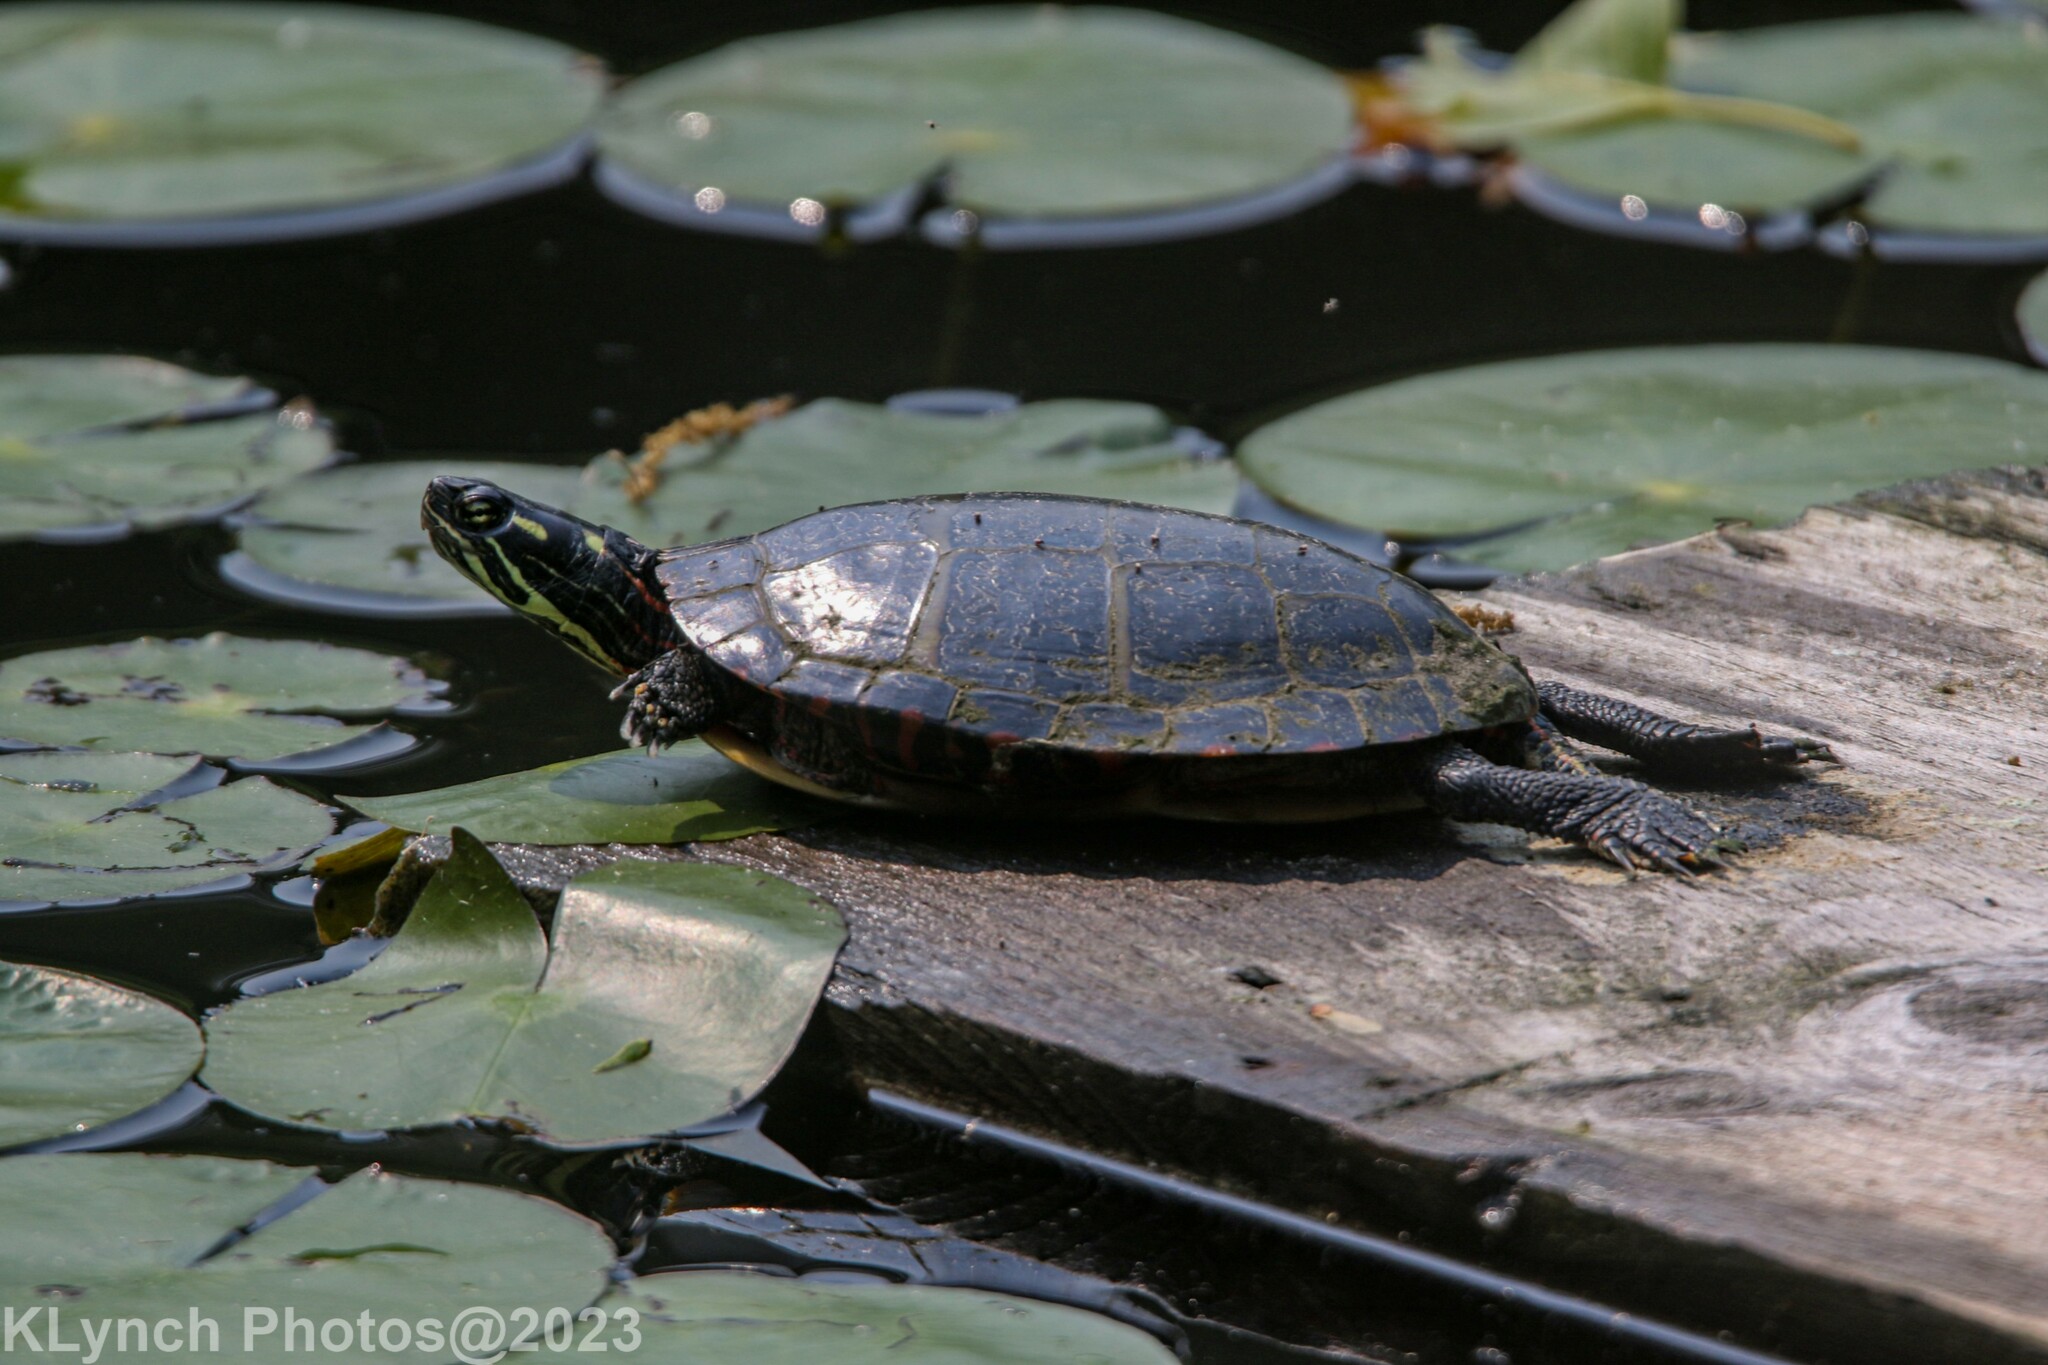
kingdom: Animalia
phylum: Chordata
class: Testudines
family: Emydidae
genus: Chrysemys
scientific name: Chrysemys picta
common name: Painted turtle
